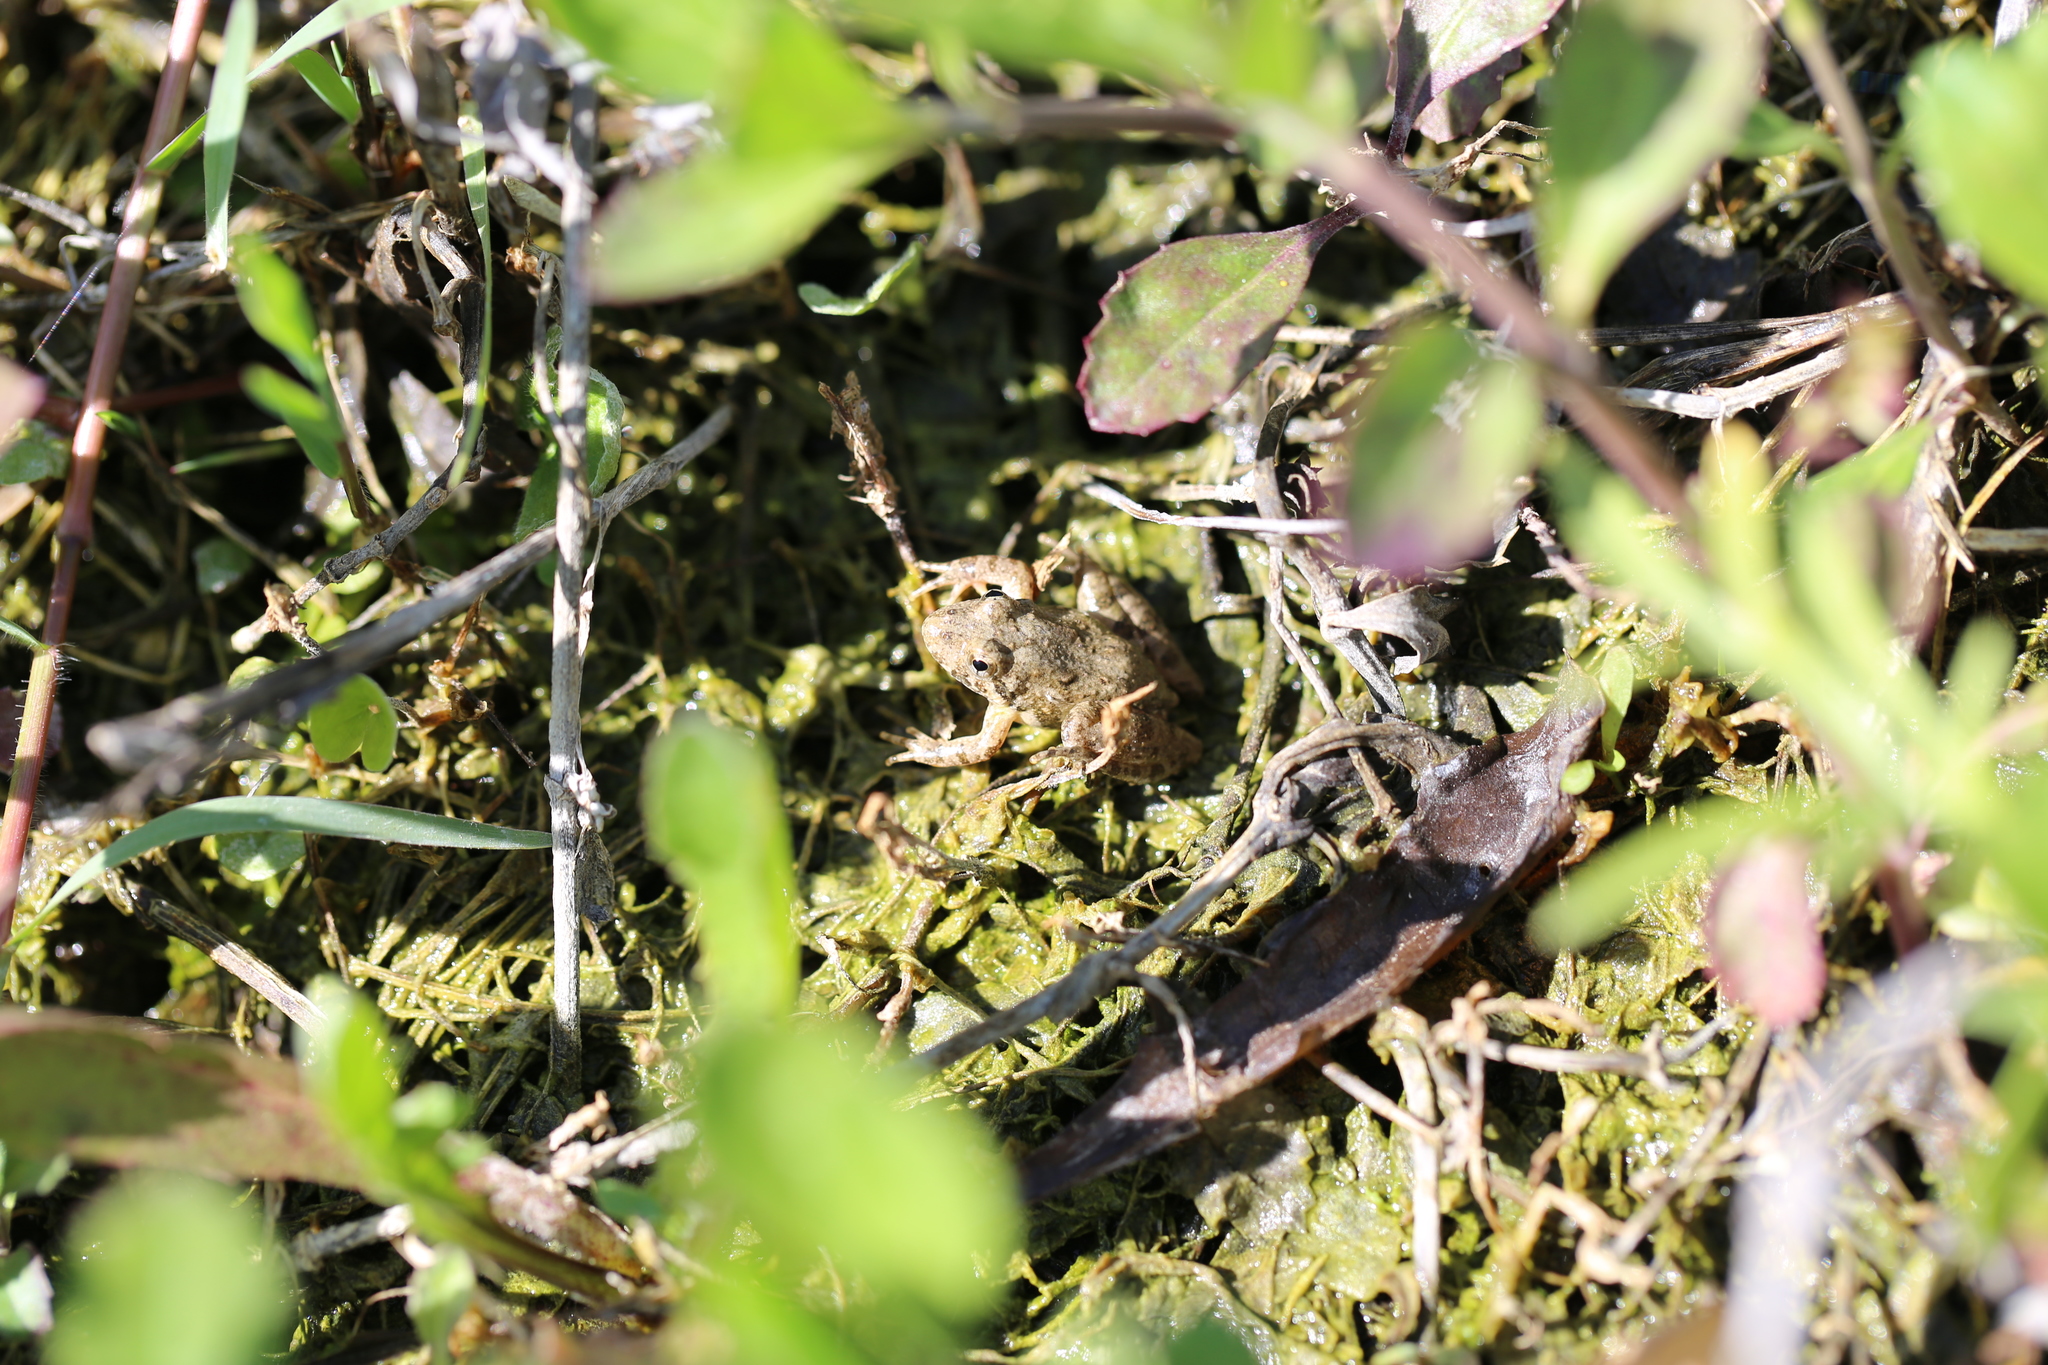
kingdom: Animalia
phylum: Chordata
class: Amphibia
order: Anura
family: Hylidae
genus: Acris
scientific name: Acris blanchardi
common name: Blanchard's cricket frog
